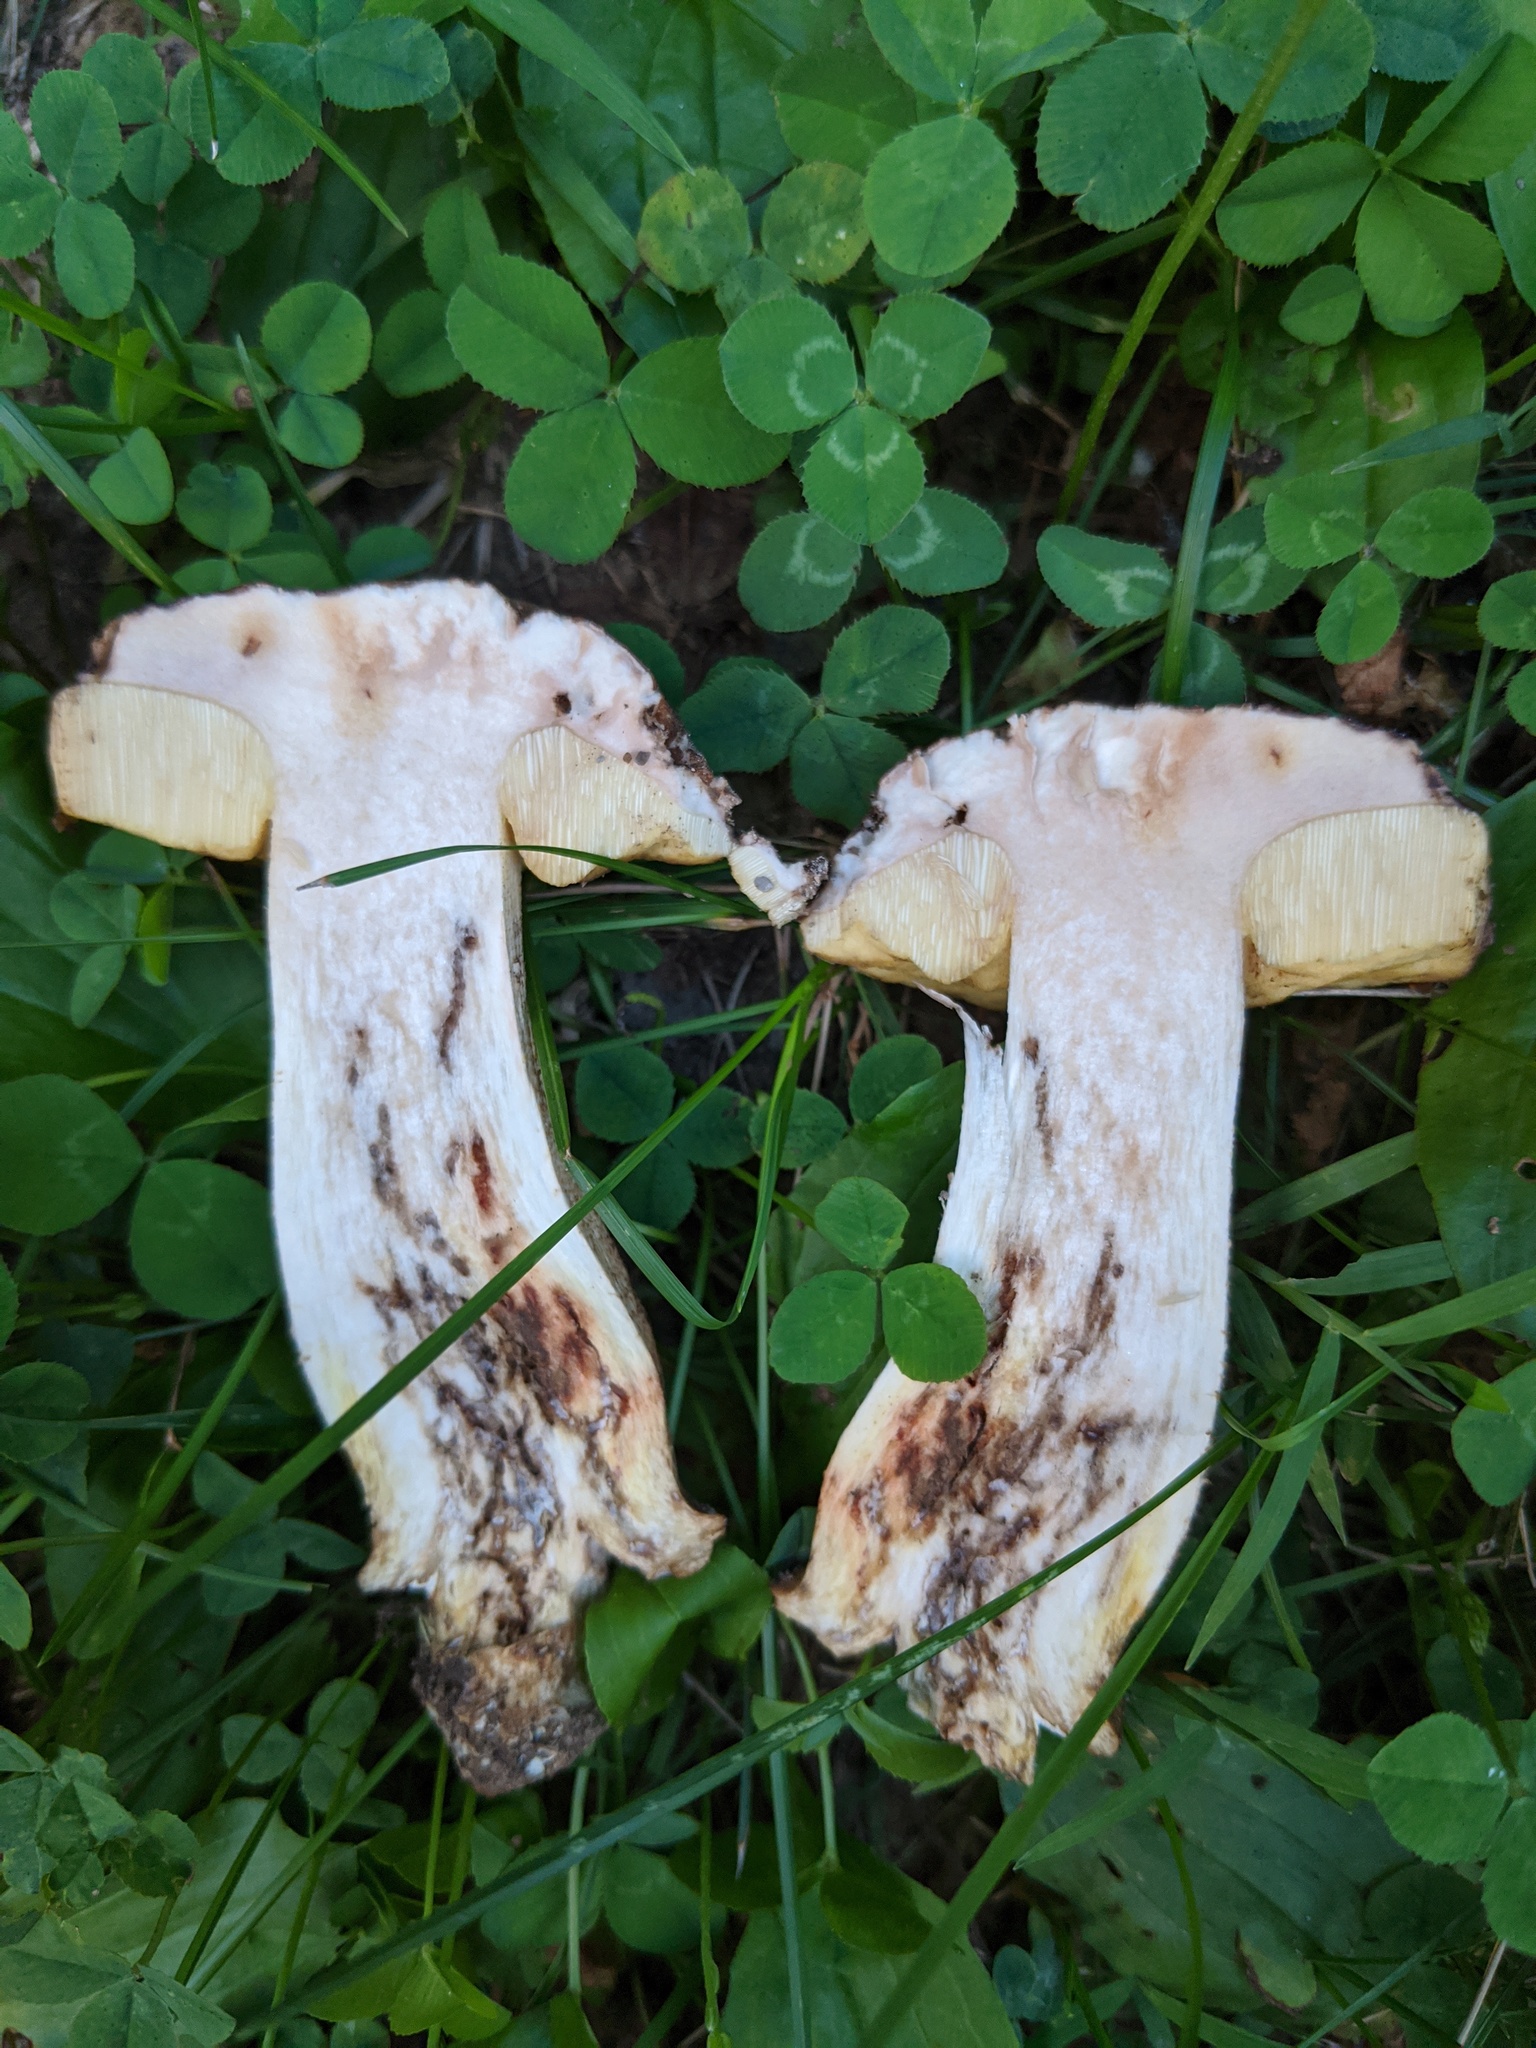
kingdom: Fungi
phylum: Basidiomycota
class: Agaricomycetes
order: Boletales
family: Boletaceae
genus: Leccinellum
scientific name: Leccinellum crocipodium
